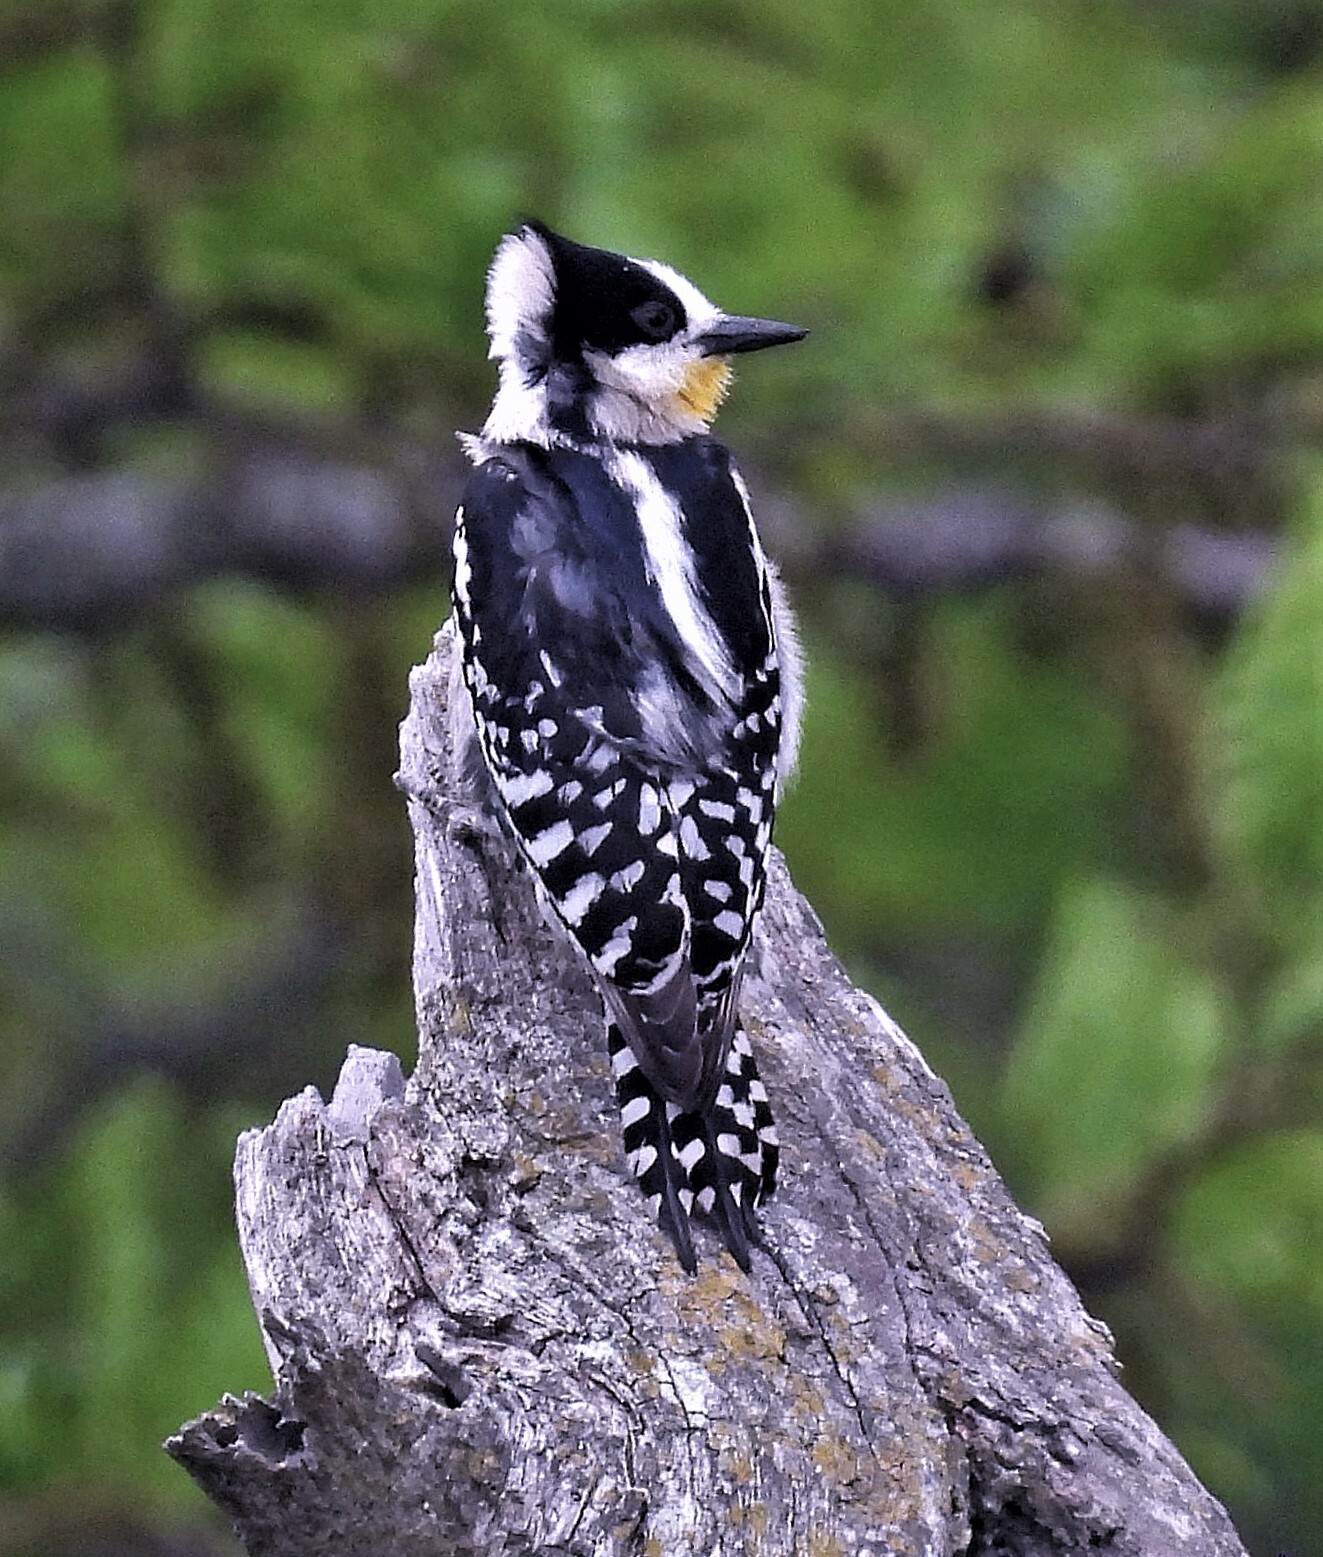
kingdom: Animalia
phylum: Chordata
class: Aves
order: Piciformes
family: Picidae
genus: Melanerpes
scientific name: Melanerpes cactorum
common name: White-fronted woodpecker
